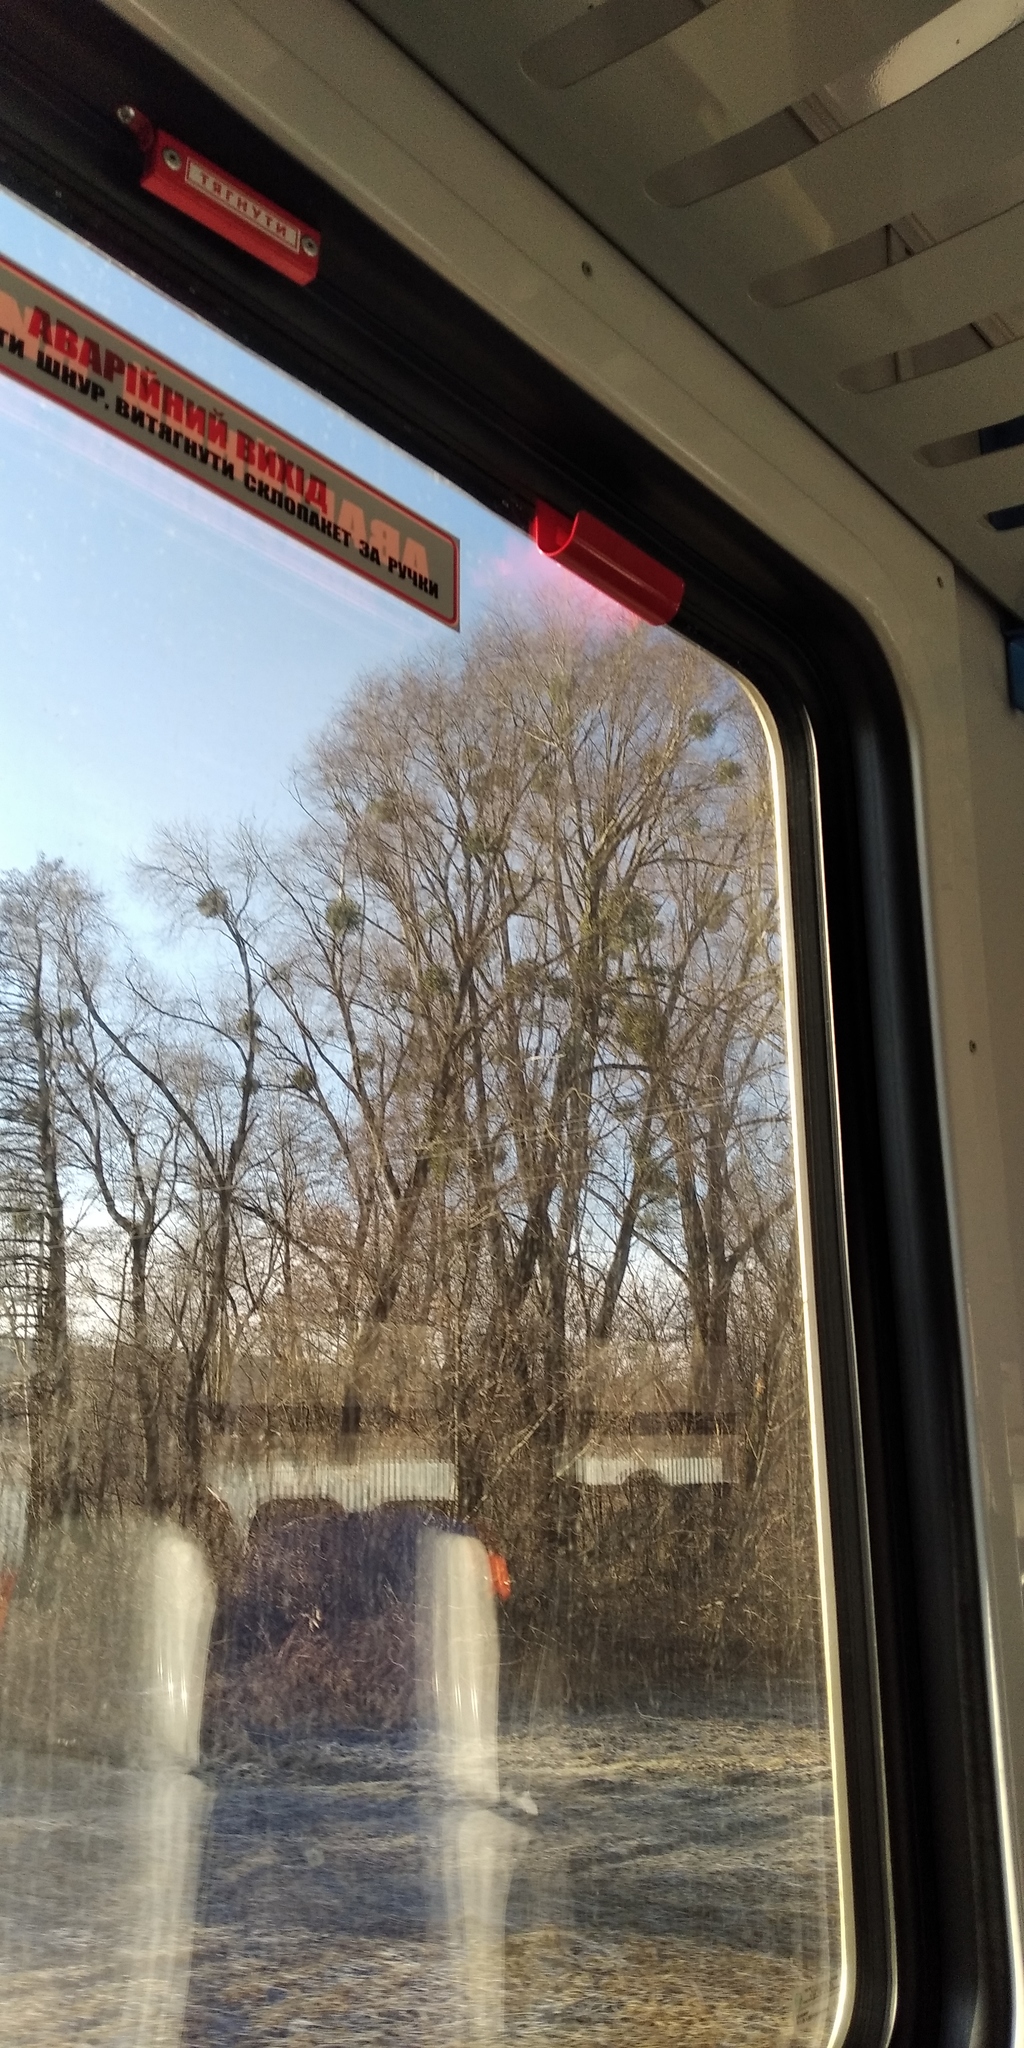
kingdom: Plantae
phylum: Tracheophyta
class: Magnoliopsida
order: Santalales
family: Viscaceae
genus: Viscum
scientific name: Viscum album
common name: Mistletoe
